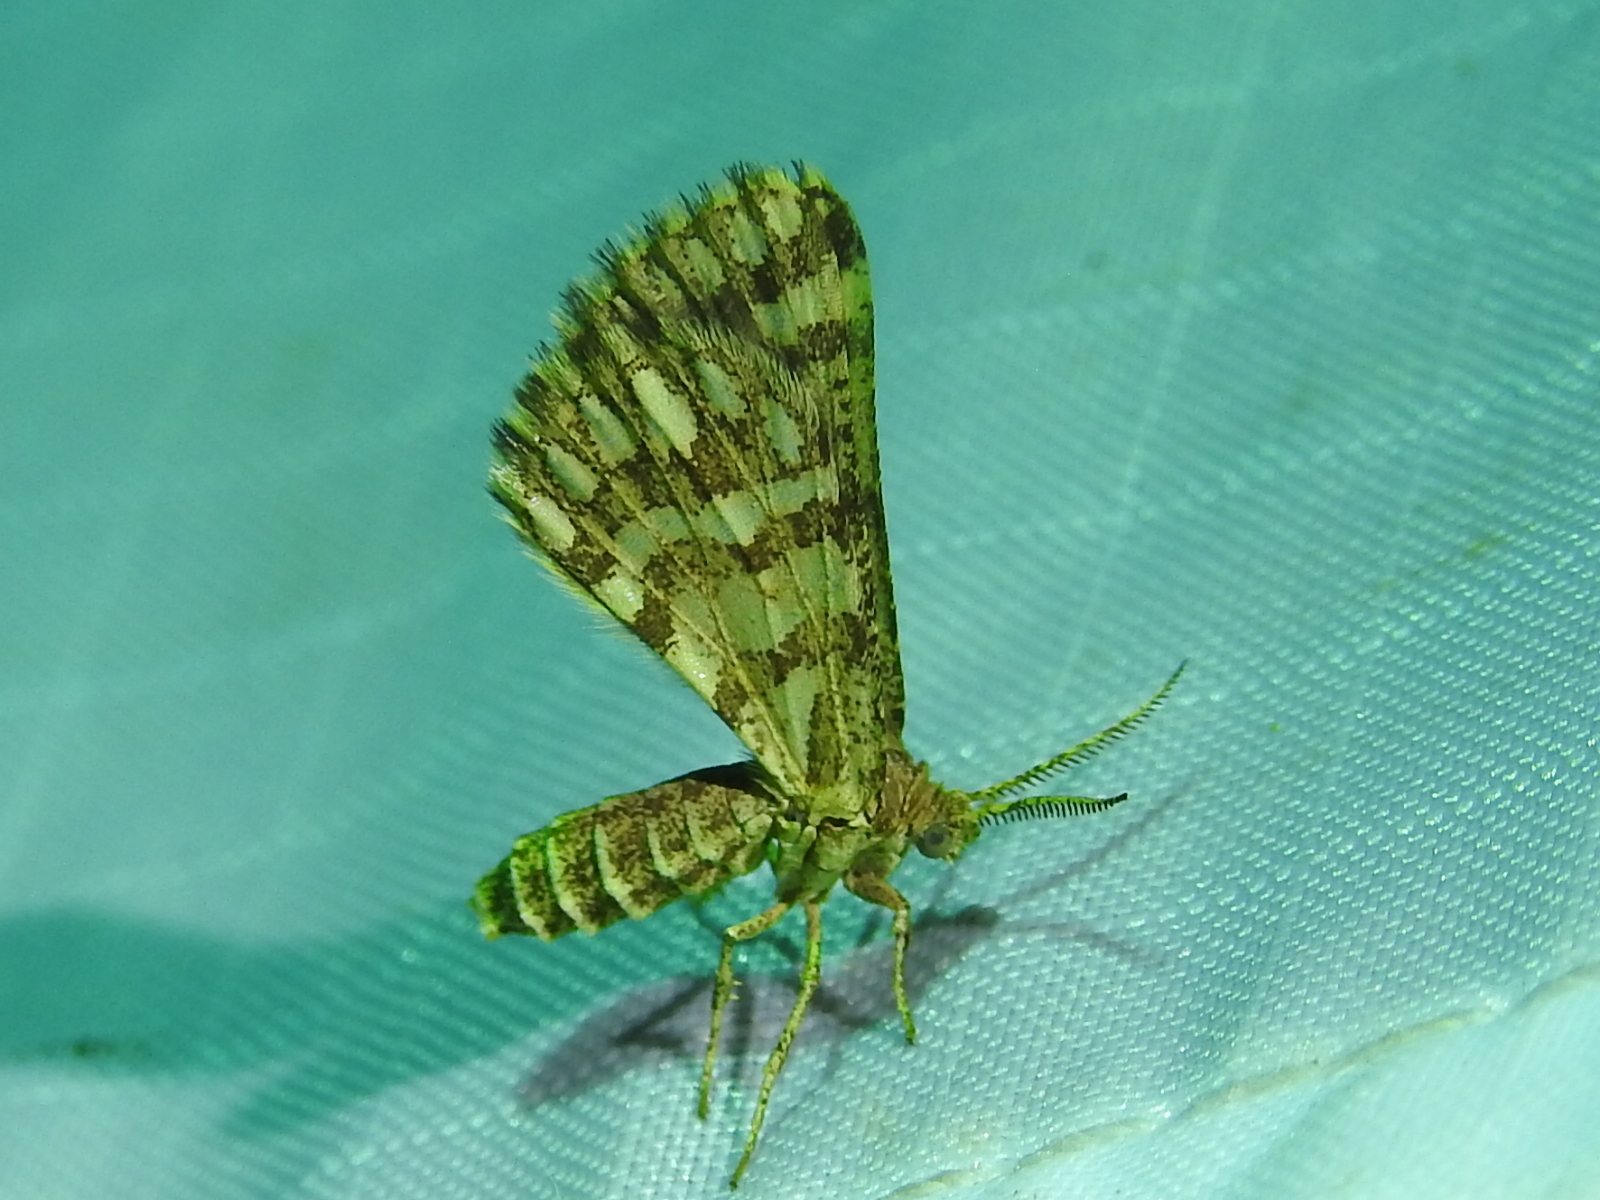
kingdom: Animalia
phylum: Arthropoda
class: Insecta
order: Lepidoptera
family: Geometridae
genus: Narraga
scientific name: Narraga fimetaria
